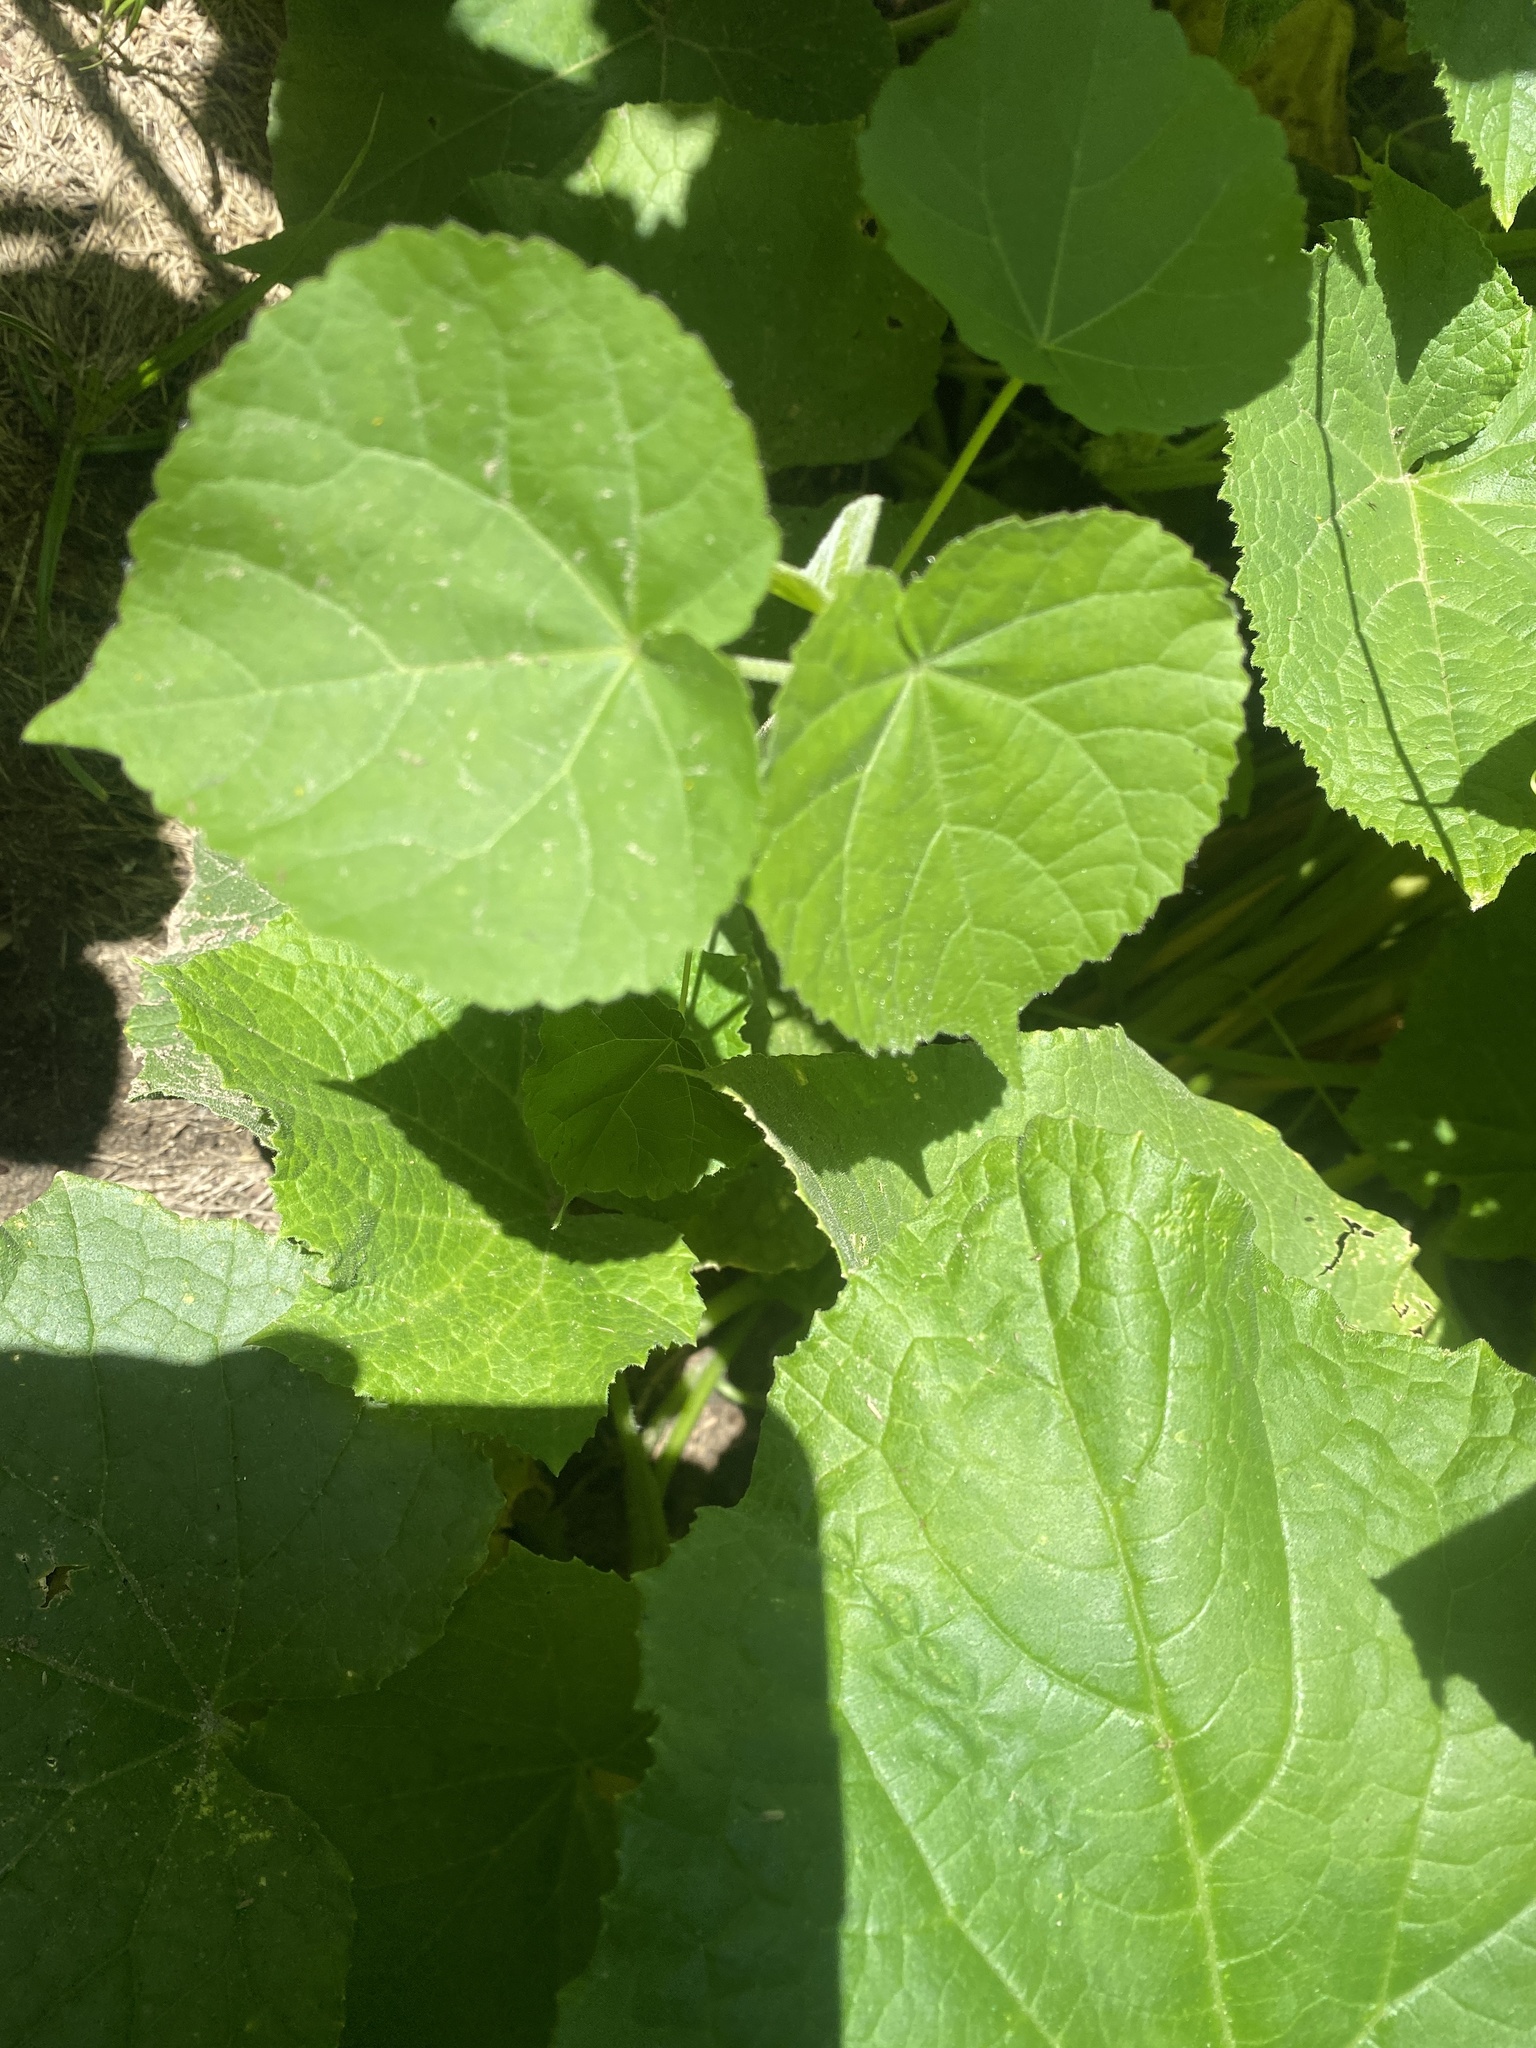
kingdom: Plantae
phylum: Tracheophyta
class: Magnoliopsida
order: Malvales
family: Malvaceae
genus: Abutilon
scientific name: Abutilon theophrasti
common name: Velvetleaf
